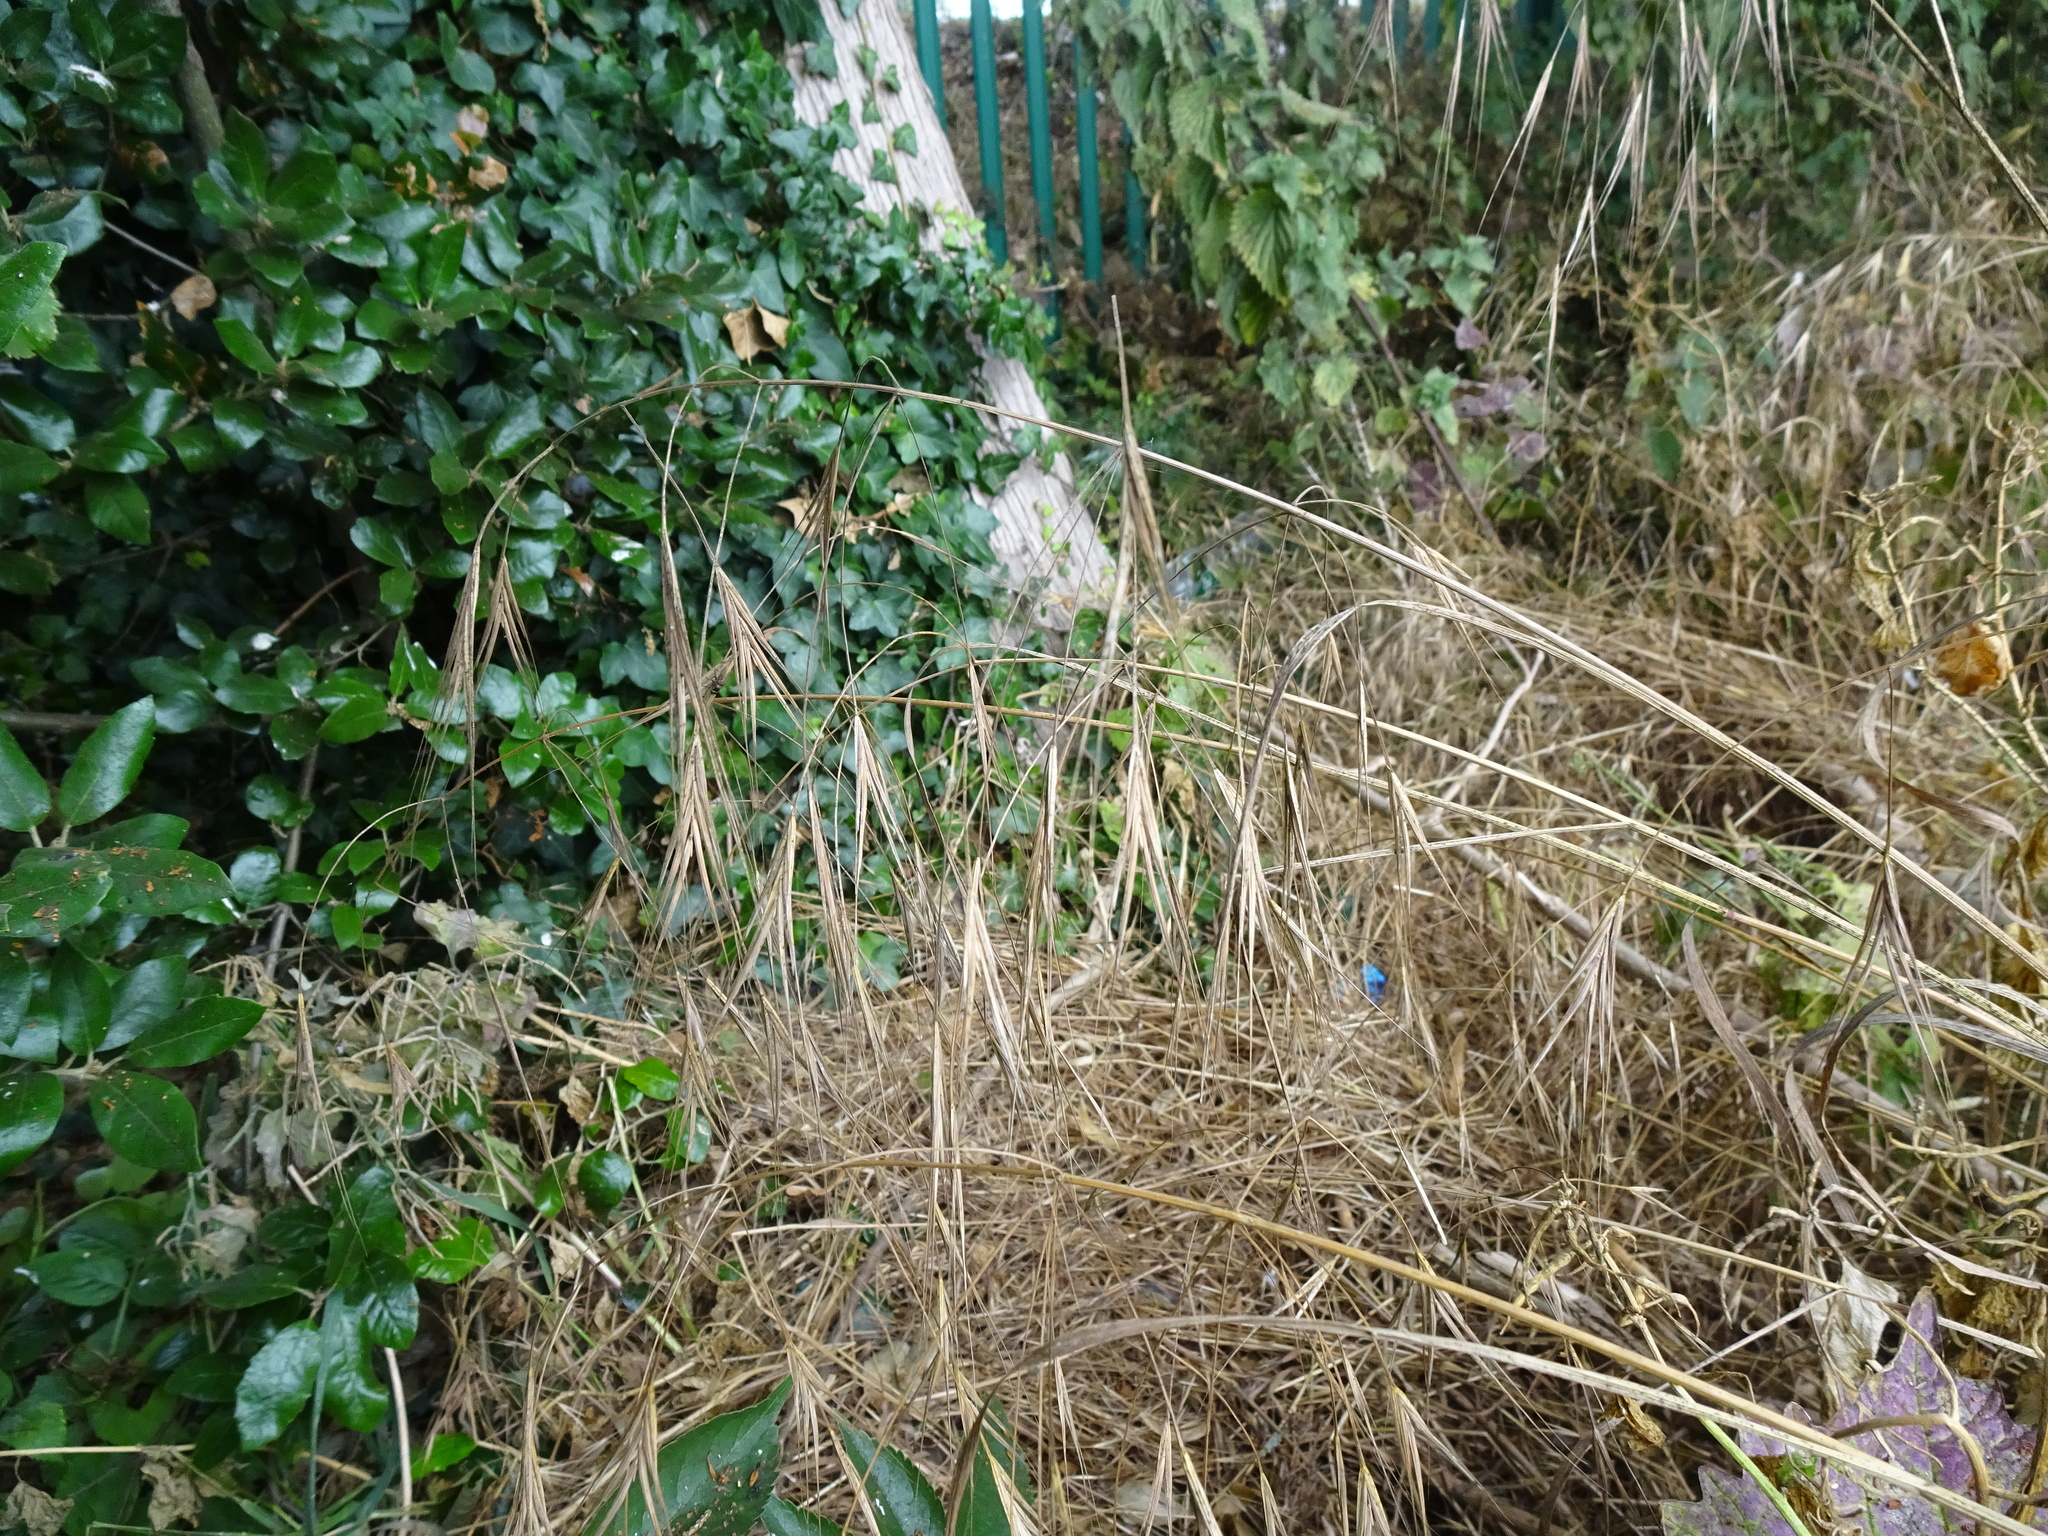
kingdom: Plantae
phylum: Tracheophyta
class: Liliopsida
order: Poales
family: Poaceae
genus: Bromus
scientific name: Bromus sterilis
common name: Poverty brome
